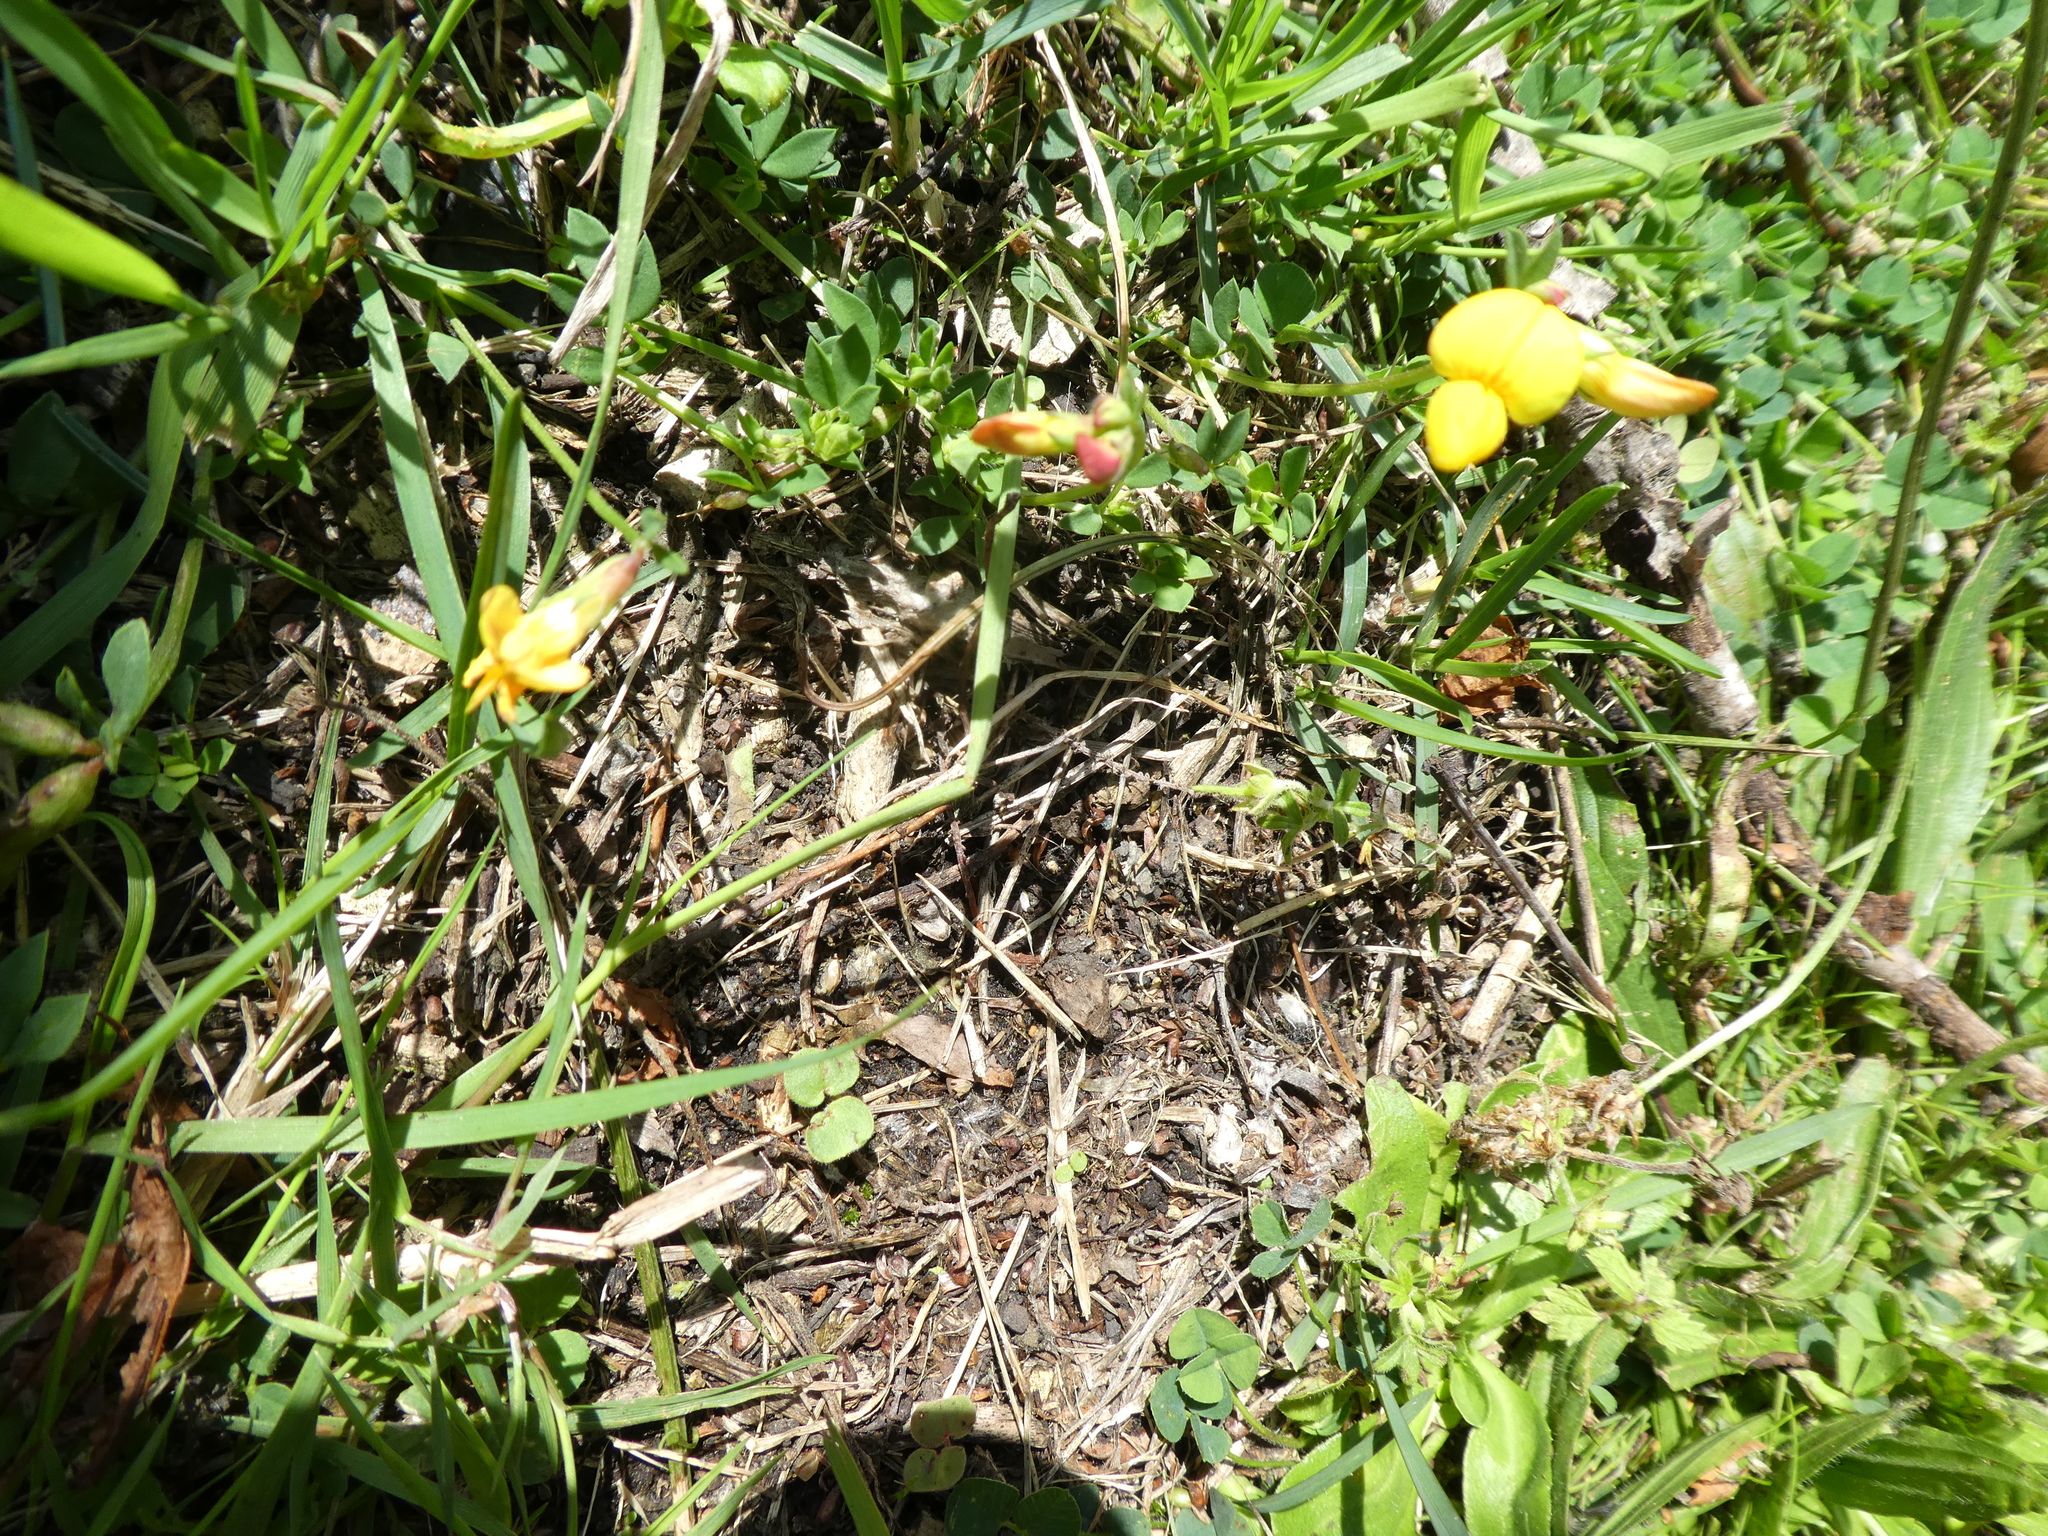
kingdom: Plantae
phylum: Tracheophyta
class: Magnoliopsida
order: Fabales
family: Fabaceae
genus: Lotus
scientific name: Lotus corniculatus
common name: Common bird's-foot-trefoil
